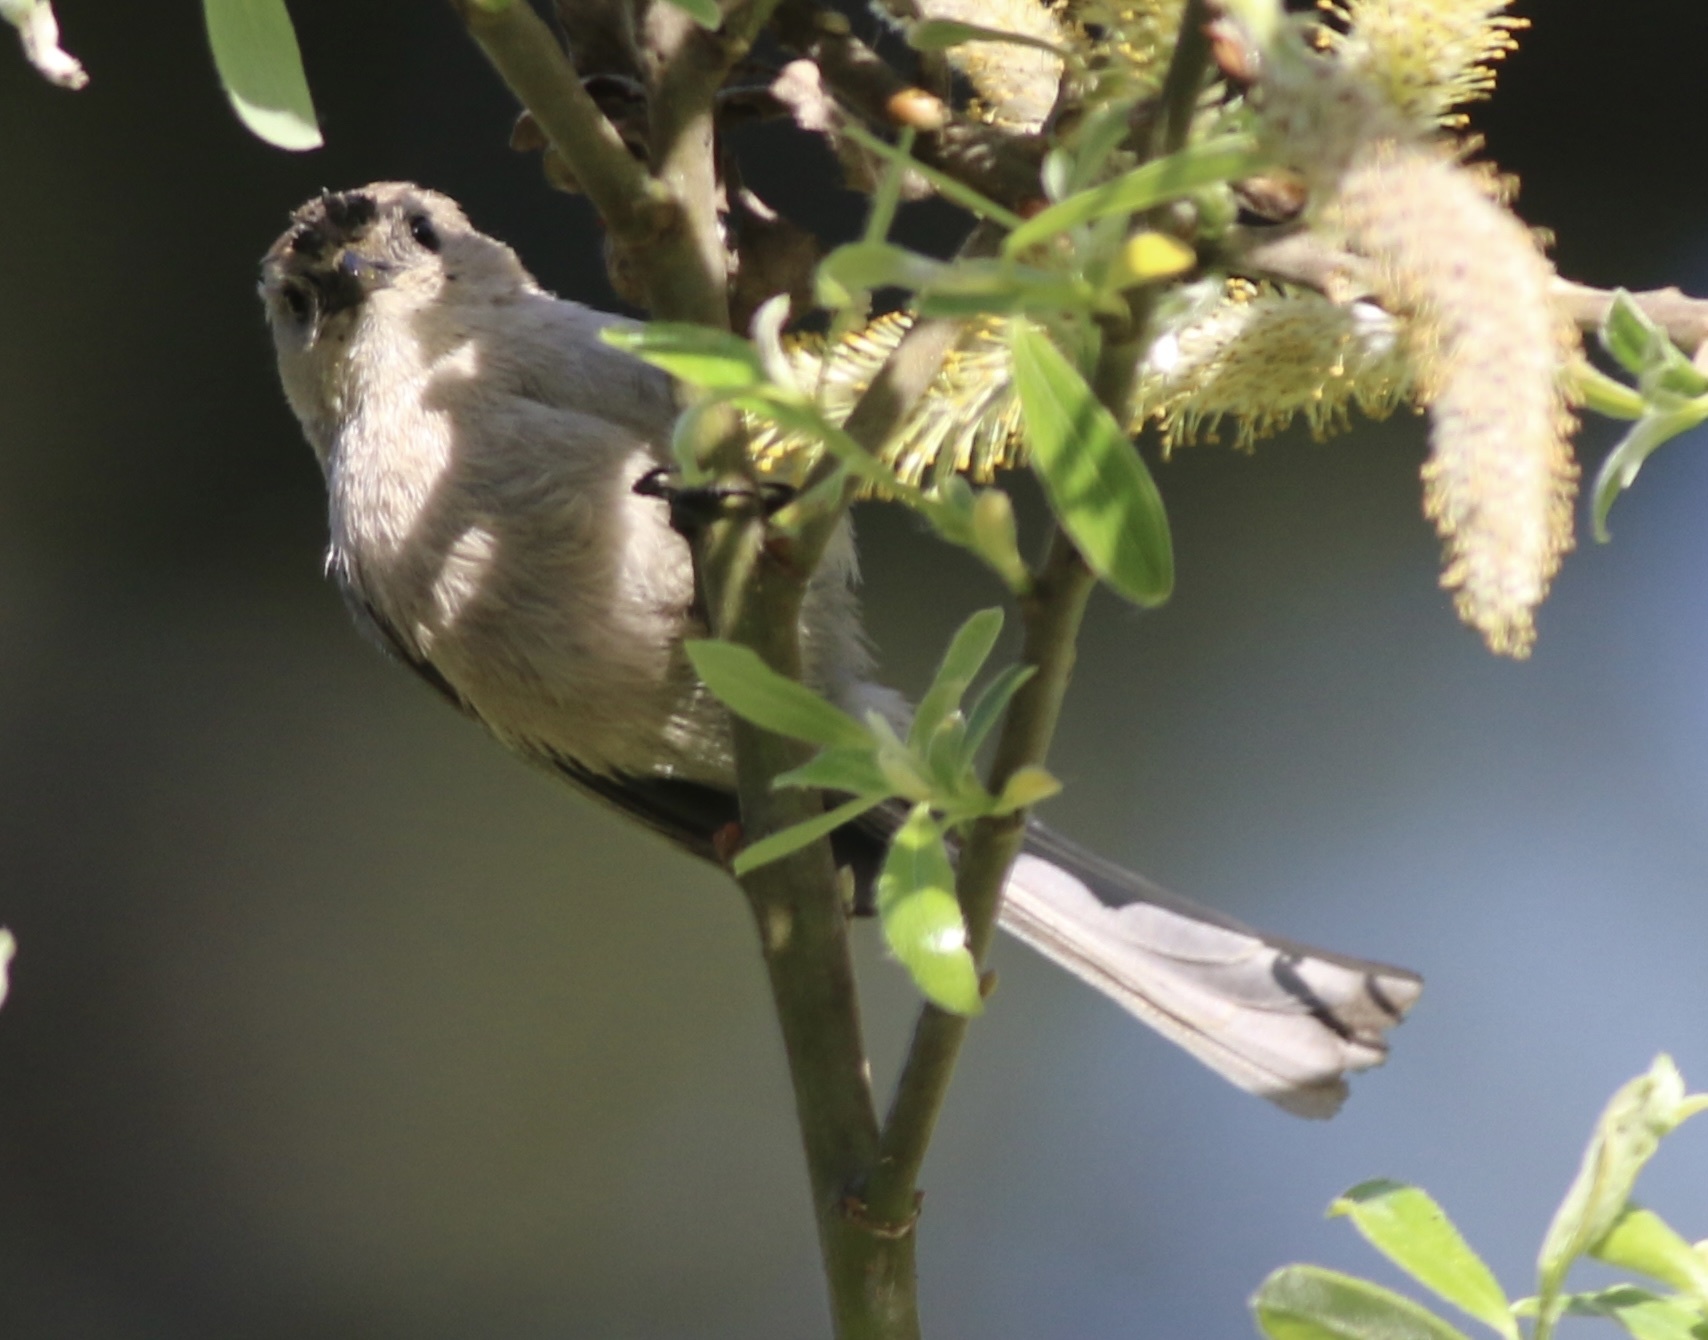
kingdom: Animalia
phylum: Chordata
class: Aves
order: Passeriformes
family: Aegithalidae
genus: Psaltriparus
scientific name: Psaltriparus minimus
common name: American bushtit
